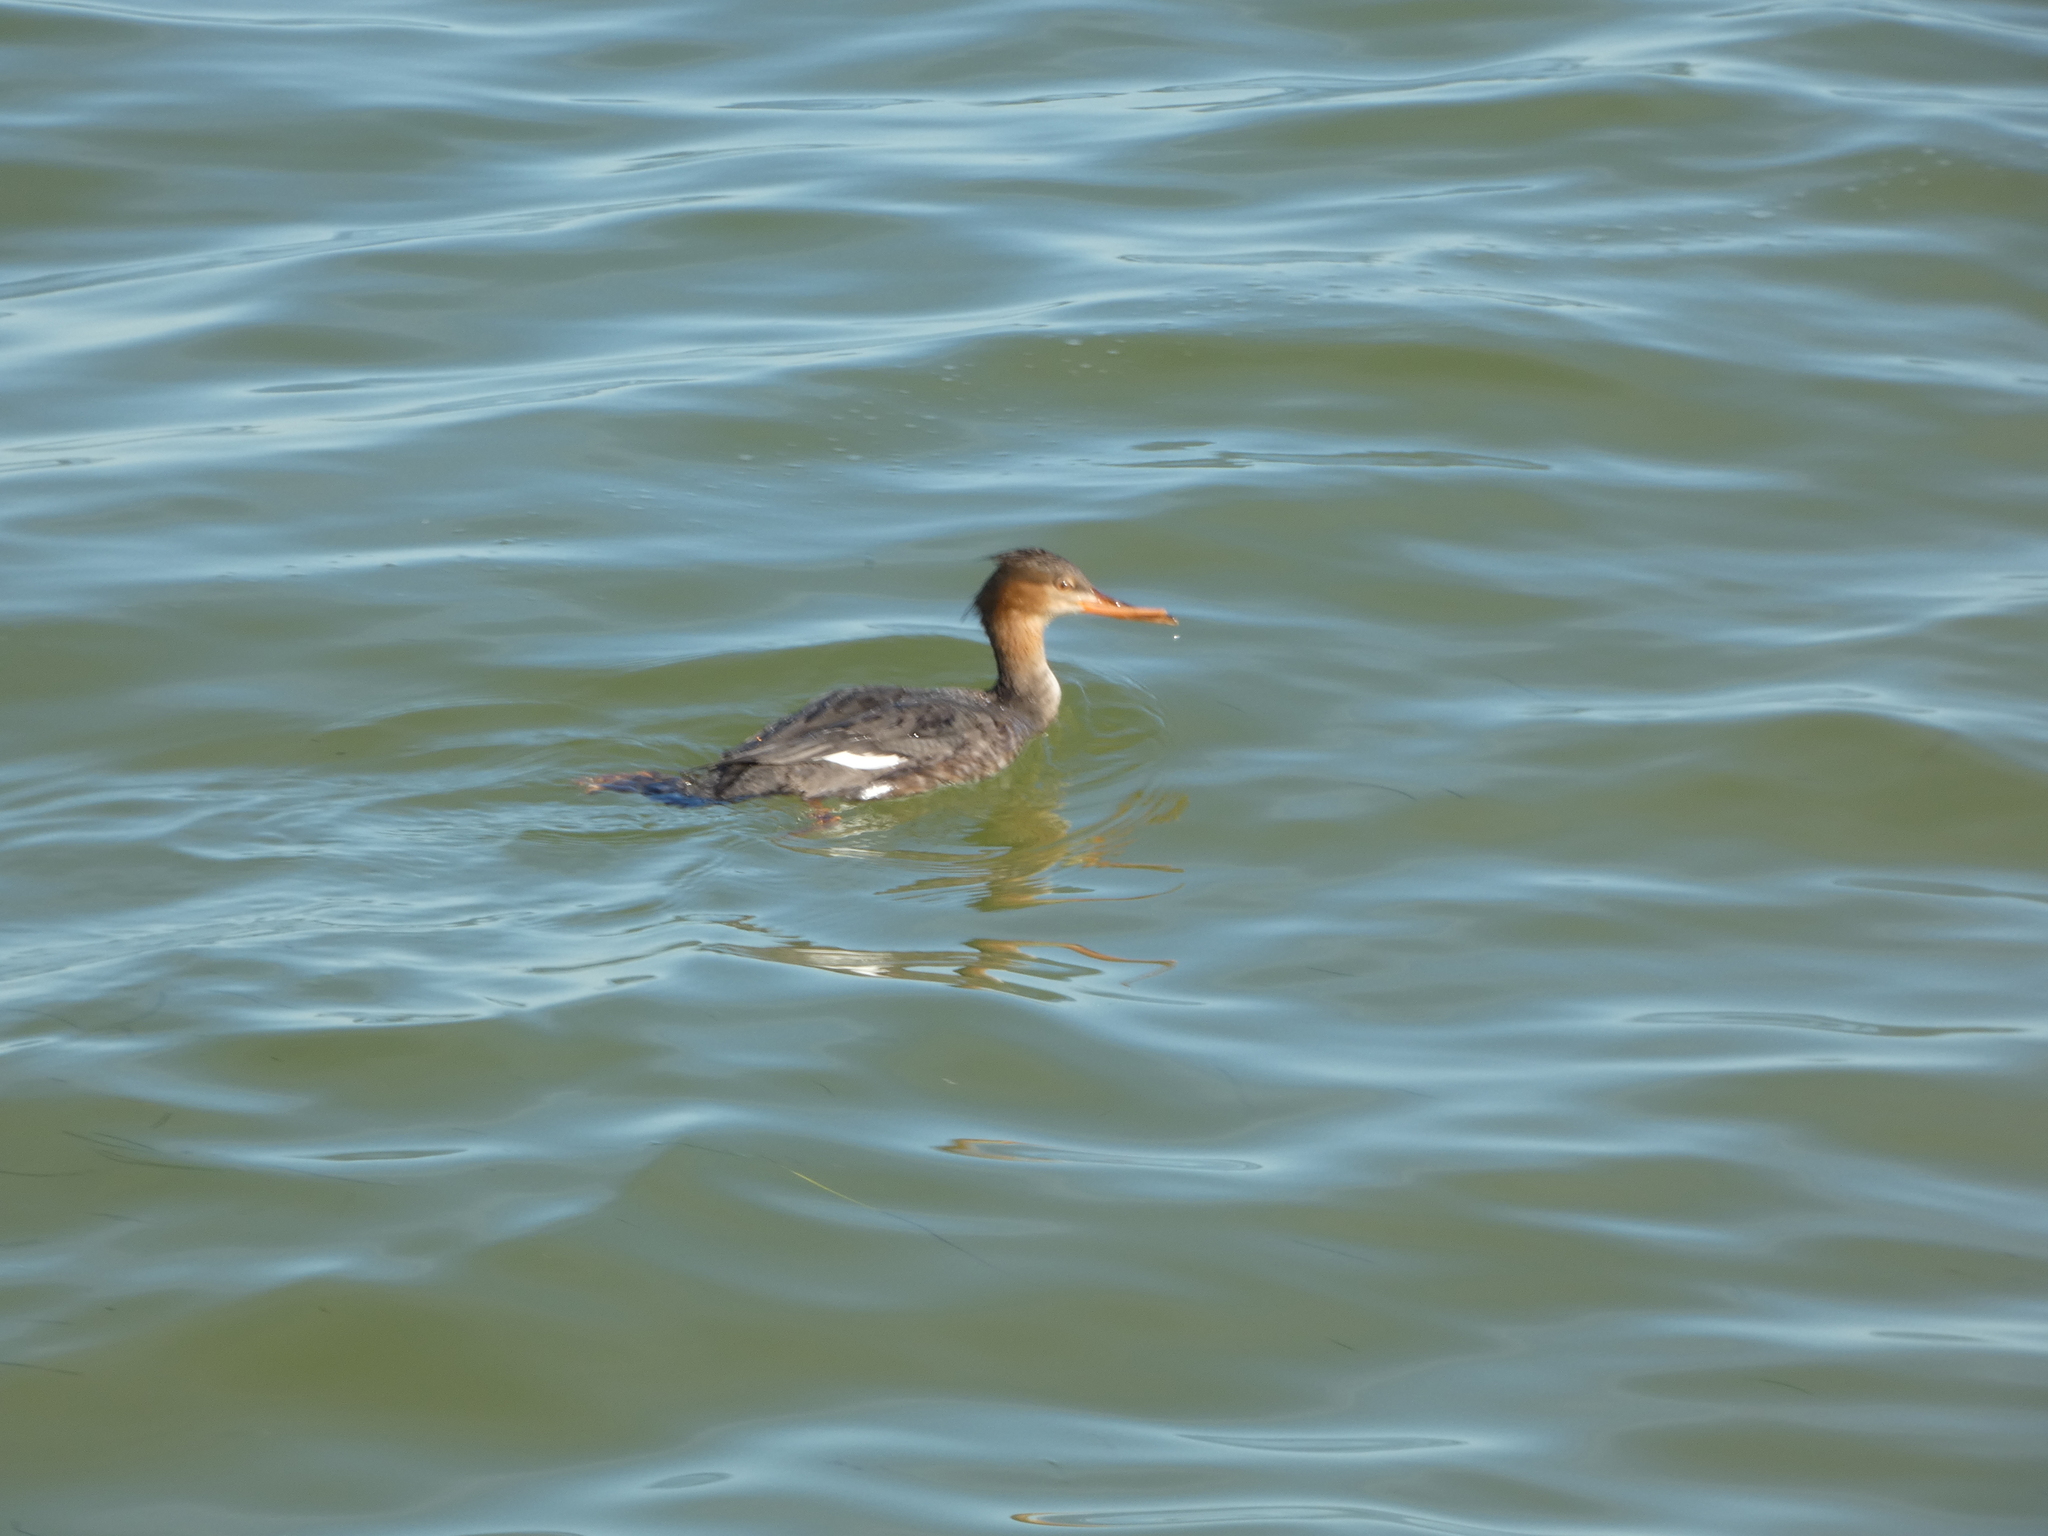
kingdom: Animalia
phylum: Chordata
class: Aves
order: Anseriformes
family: Anatidae
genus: Mergus
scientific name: Mergus serrator
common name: Red-breasted merganser
